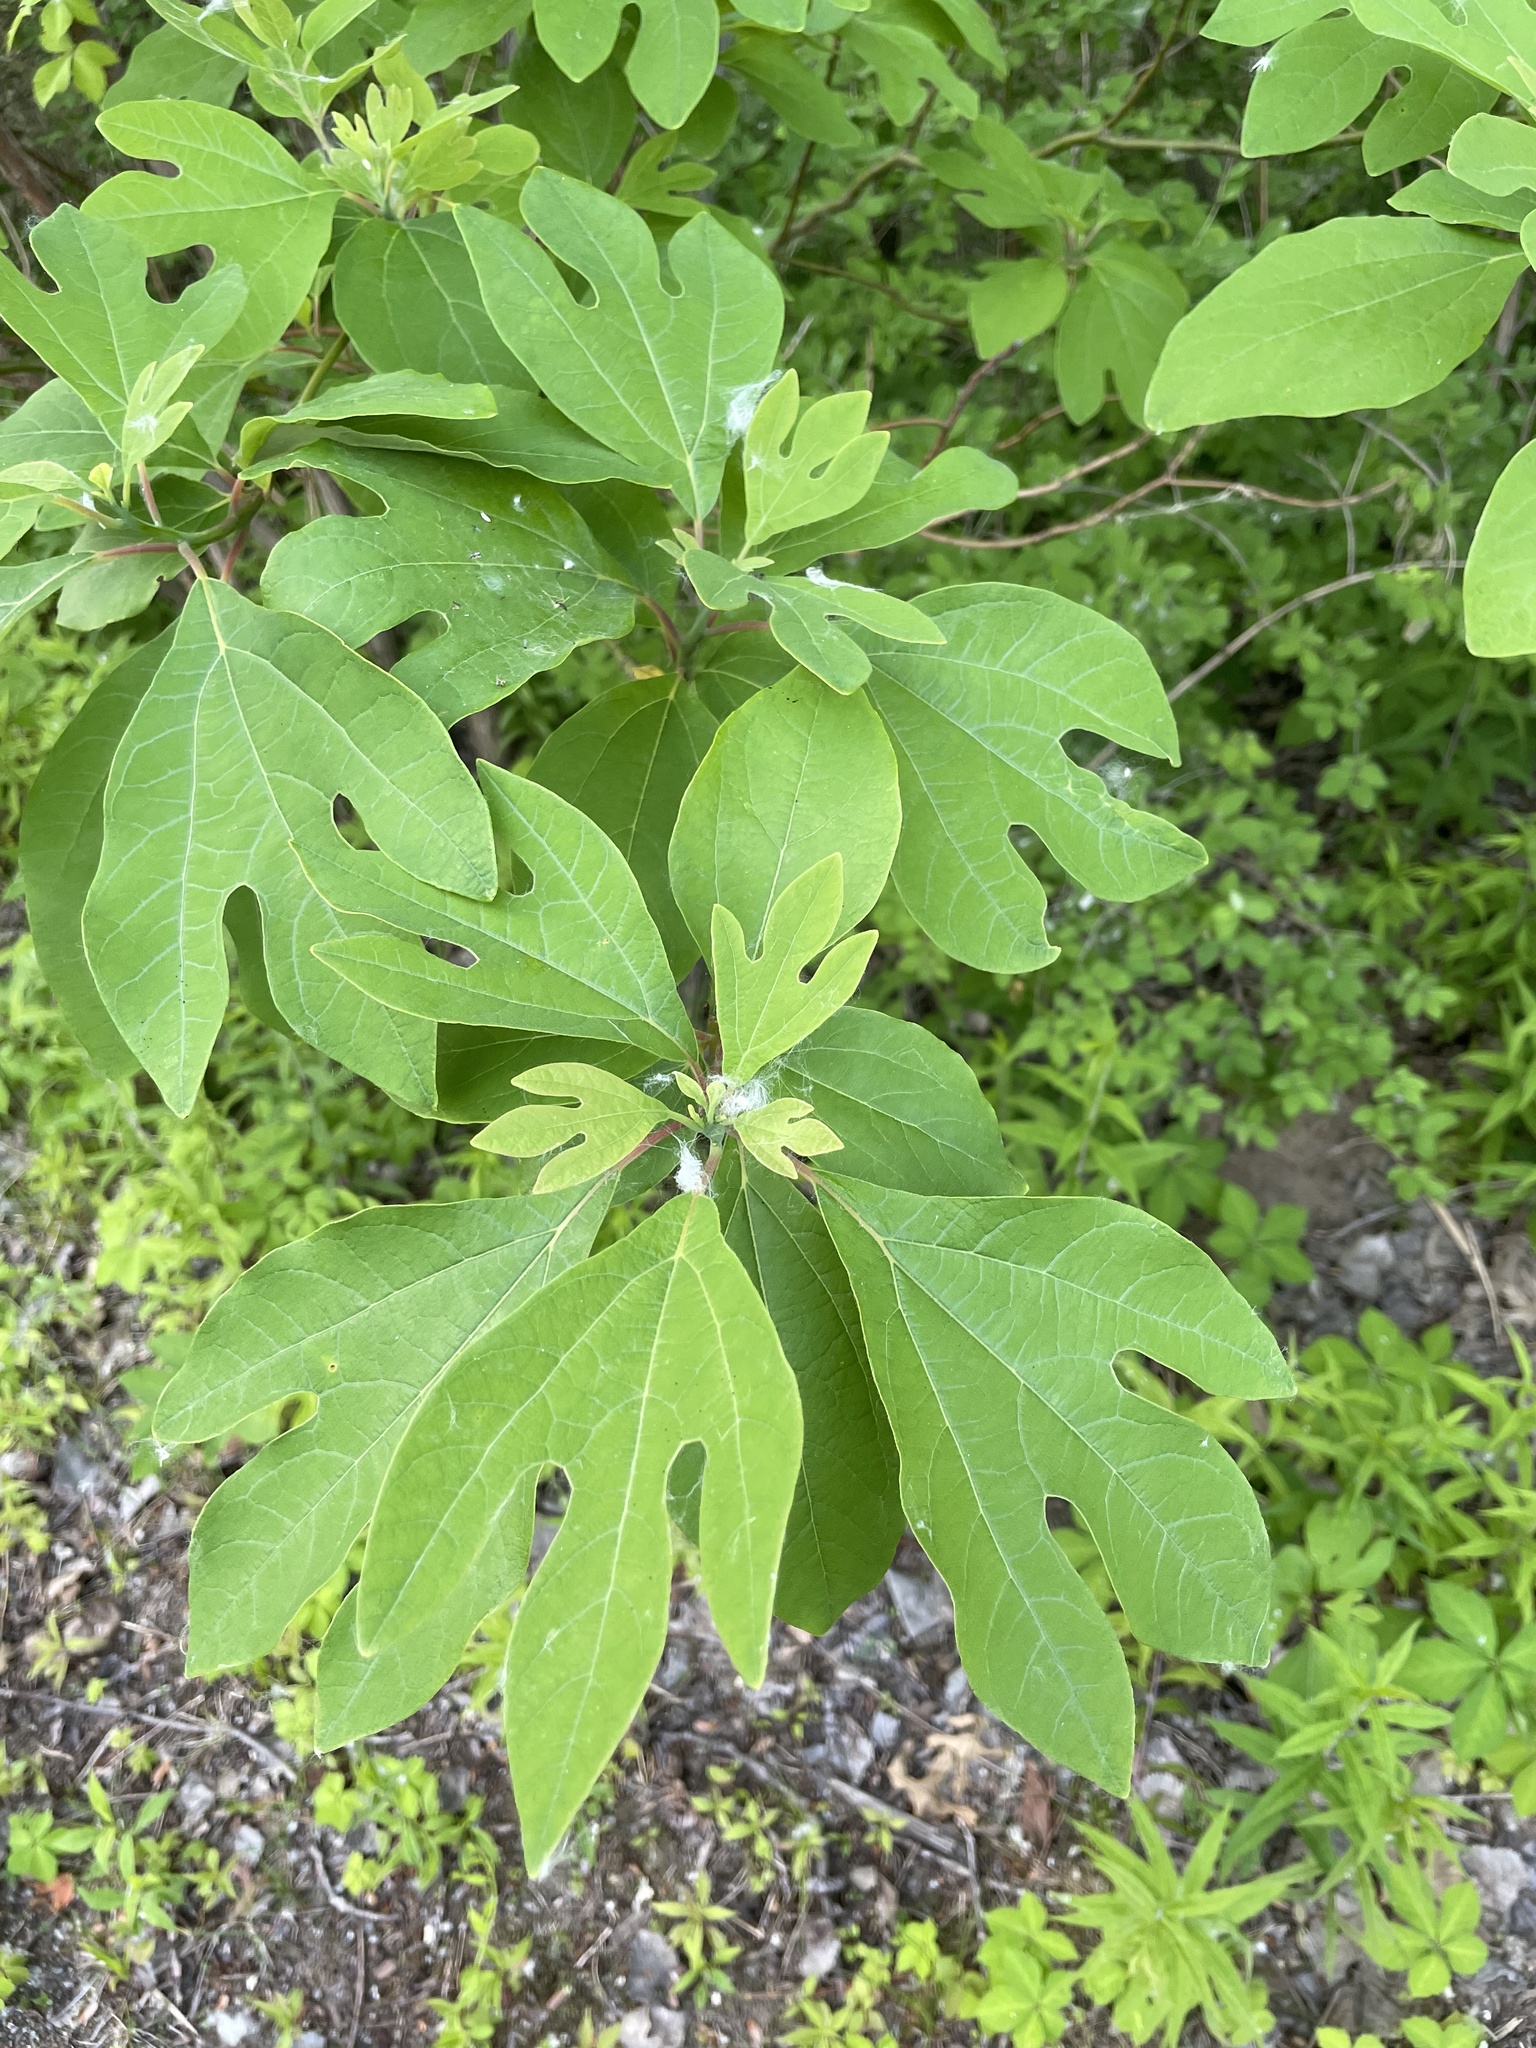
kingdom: Plantae
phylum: Tracheophyta
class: Magnoliopsida
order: Laurales
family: Lauraceae
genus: Sassafras
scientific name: Sassafras albidum
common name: Sassafras
